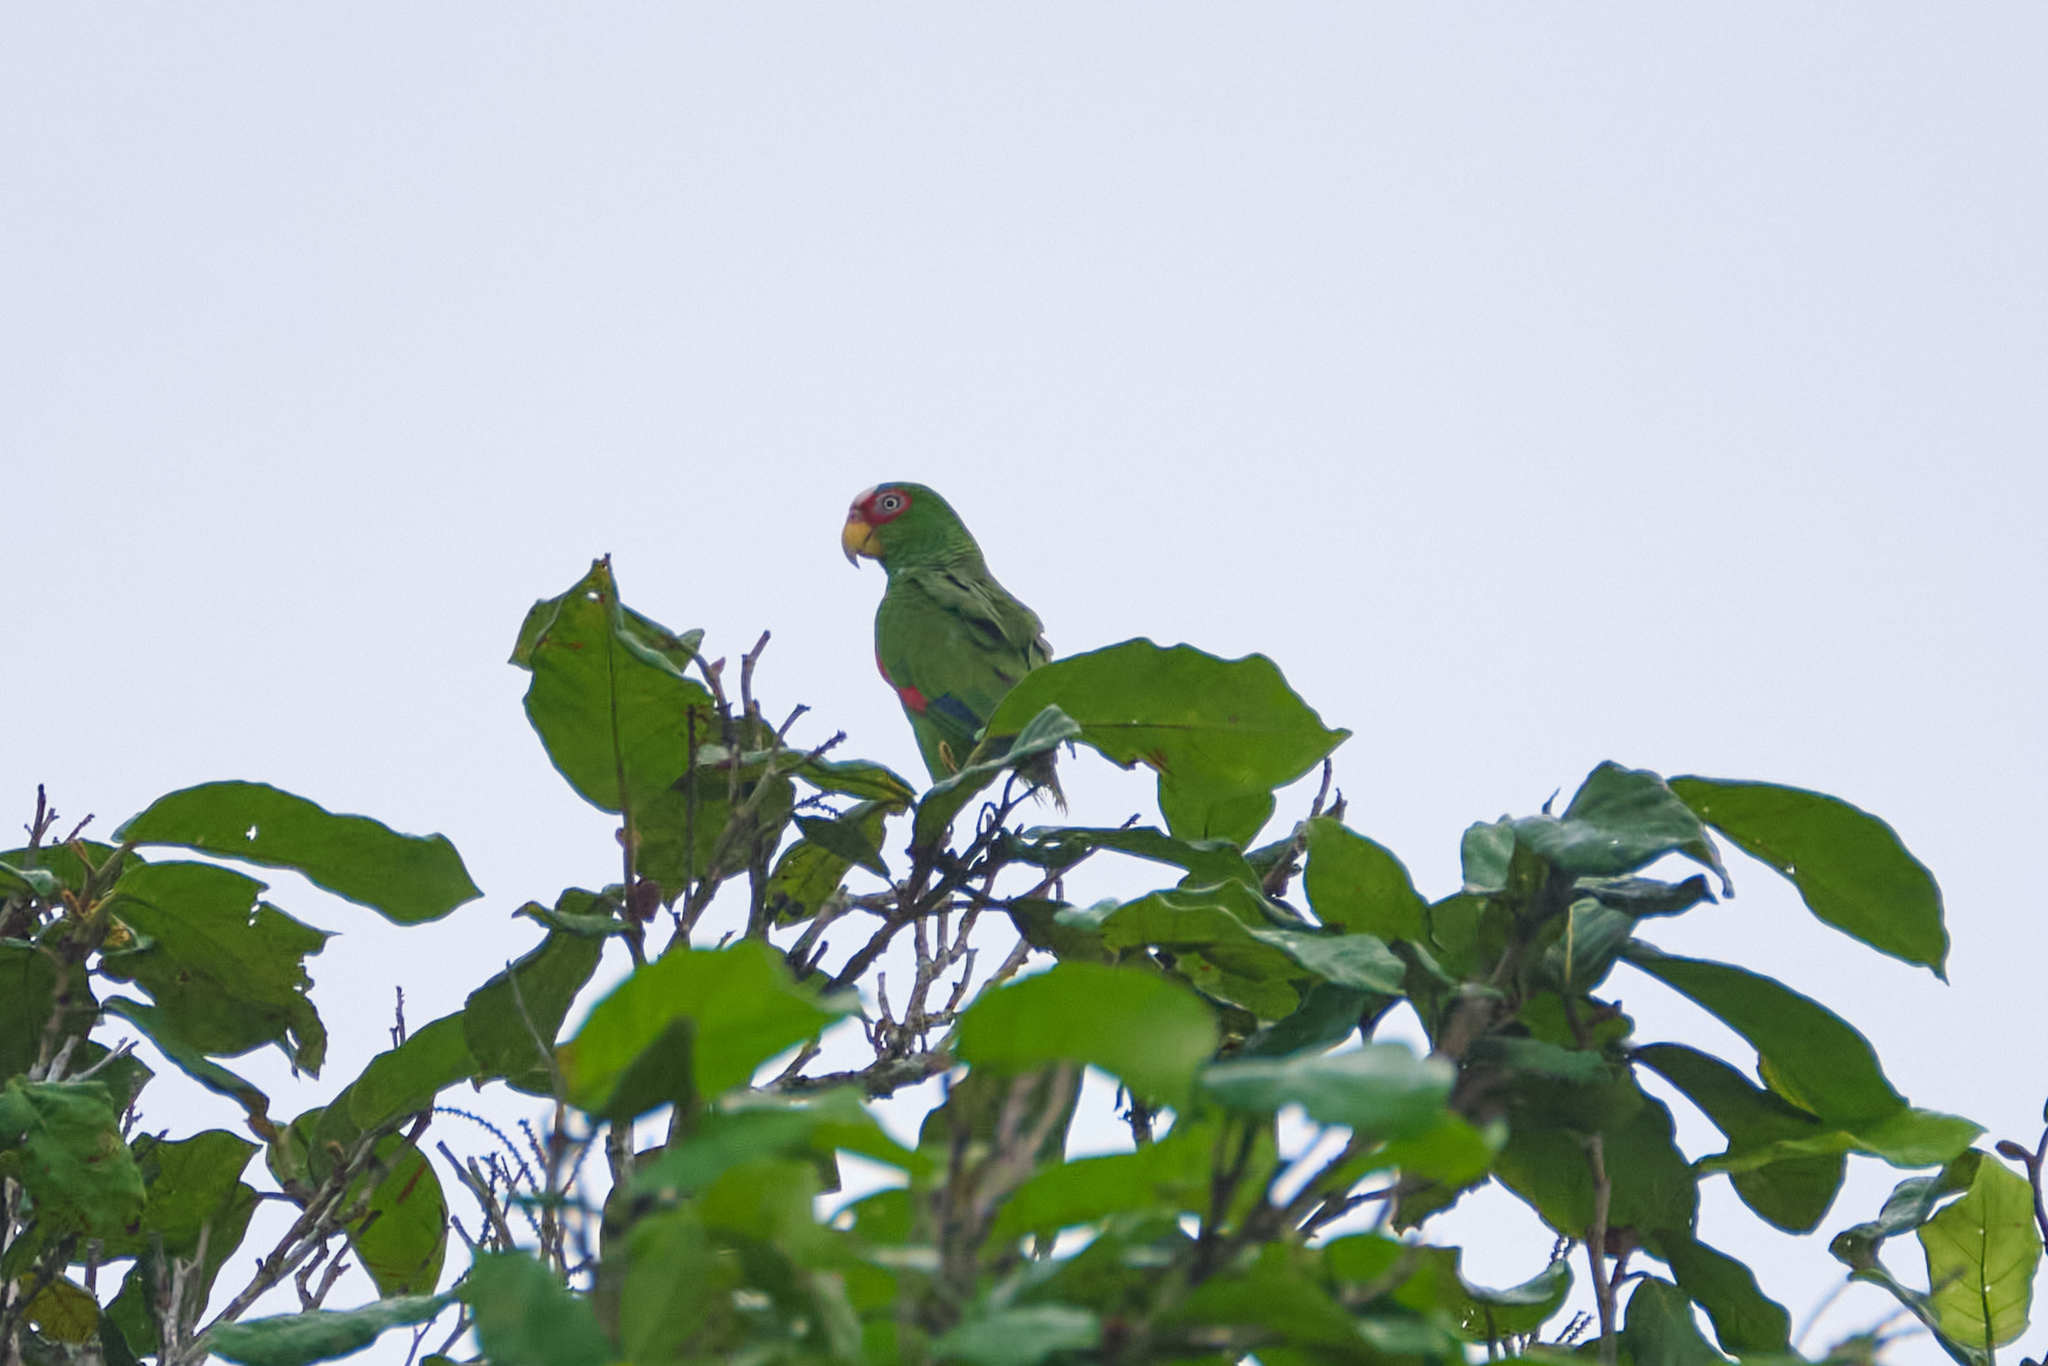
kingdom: Animalia
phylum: Chordata
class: Aves
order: Psittaciformes
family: Psittacidae
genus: Amazona
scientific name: Amazona albifrons
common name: White-fronted amazon
